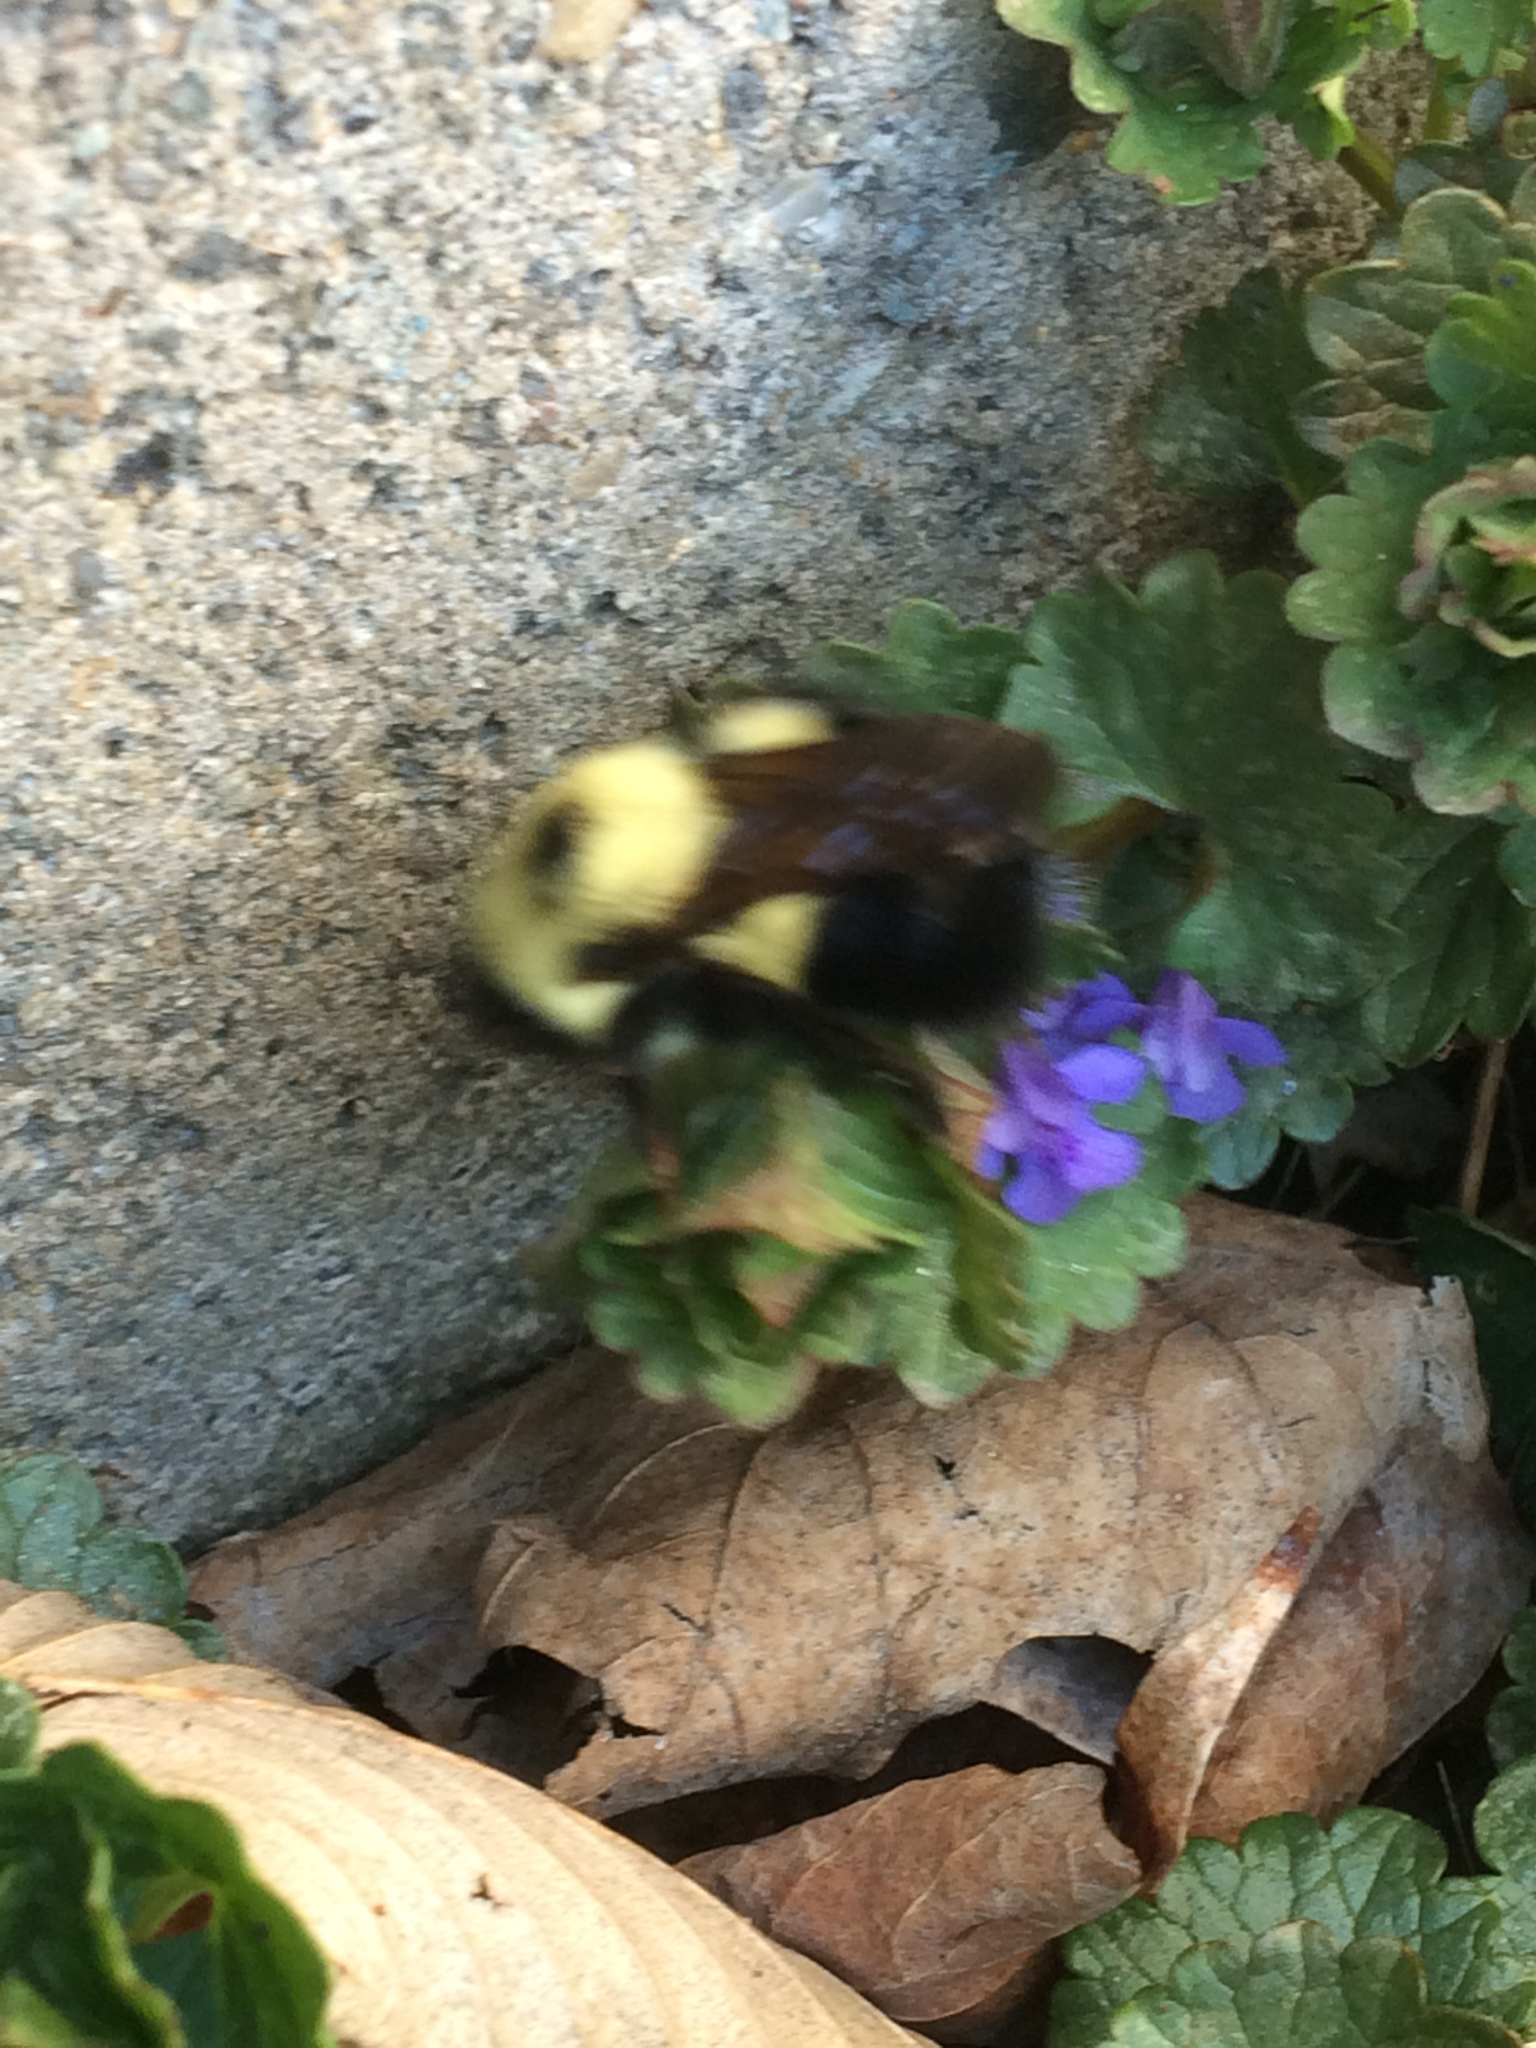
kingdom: Animalia
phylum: Arthropoda
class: Insecta
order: Hymenoptera
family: Apidae
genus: Bombus
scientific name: Bombus bimaculatus
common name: Two-spotted bumble bee
